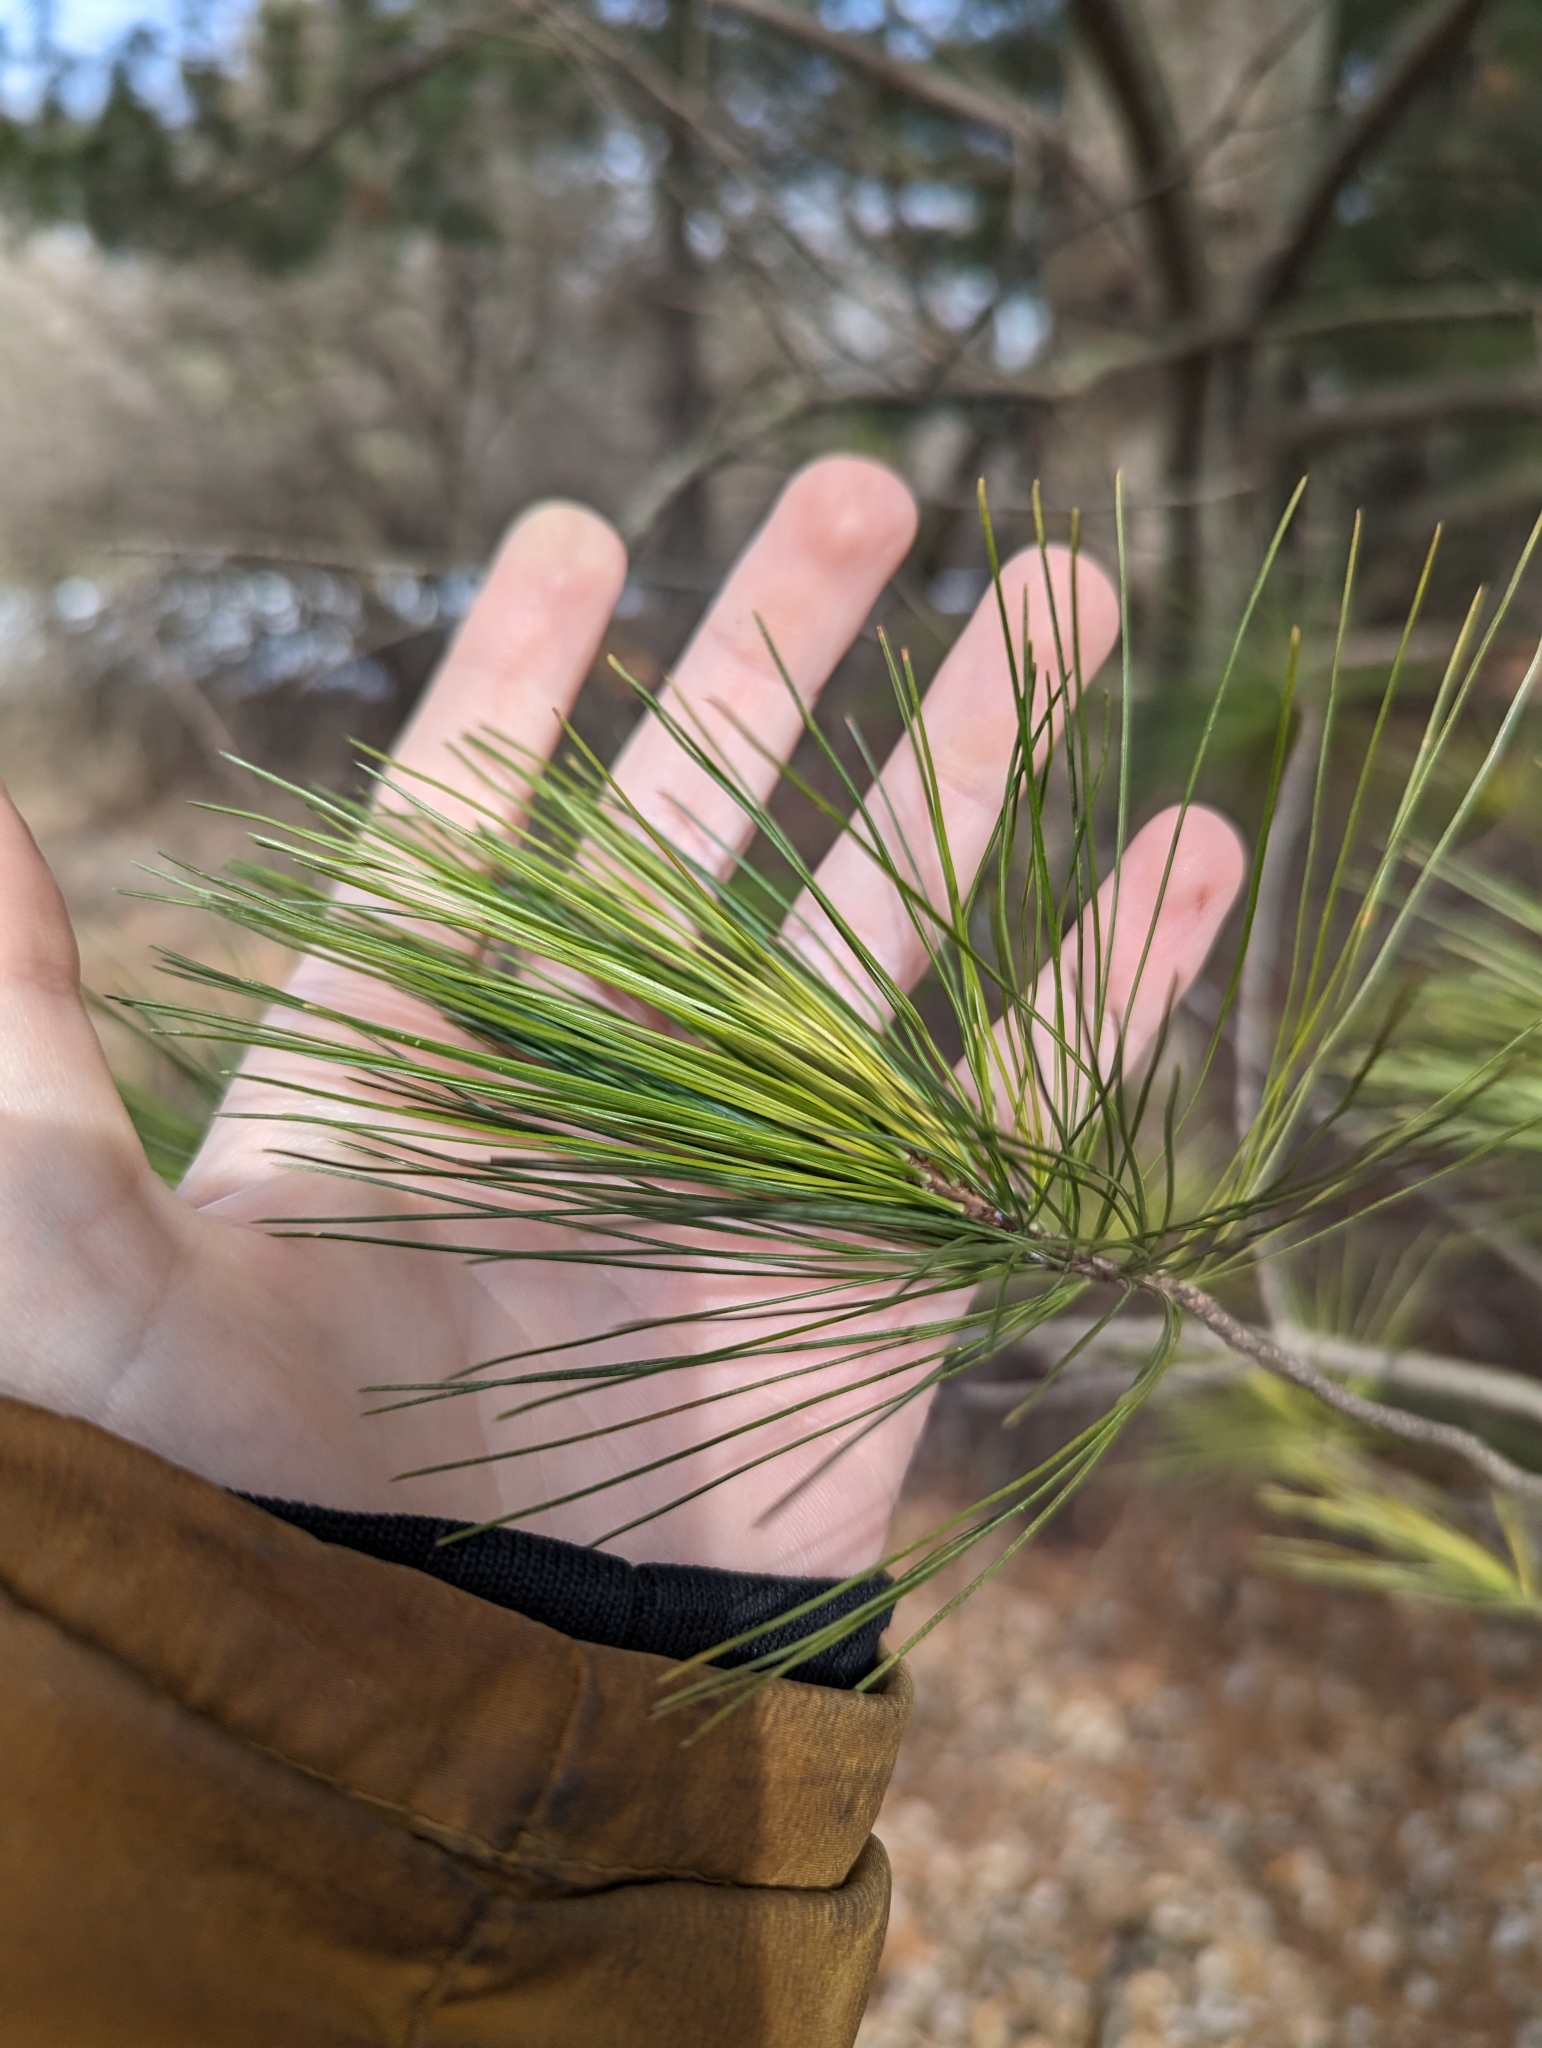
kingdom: Plantae
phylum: Tracheophyta
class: Pinopsida
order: Pinales
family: Pinaceae
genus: Pinus
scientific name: Pinus strobus
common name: Weymouth pine
